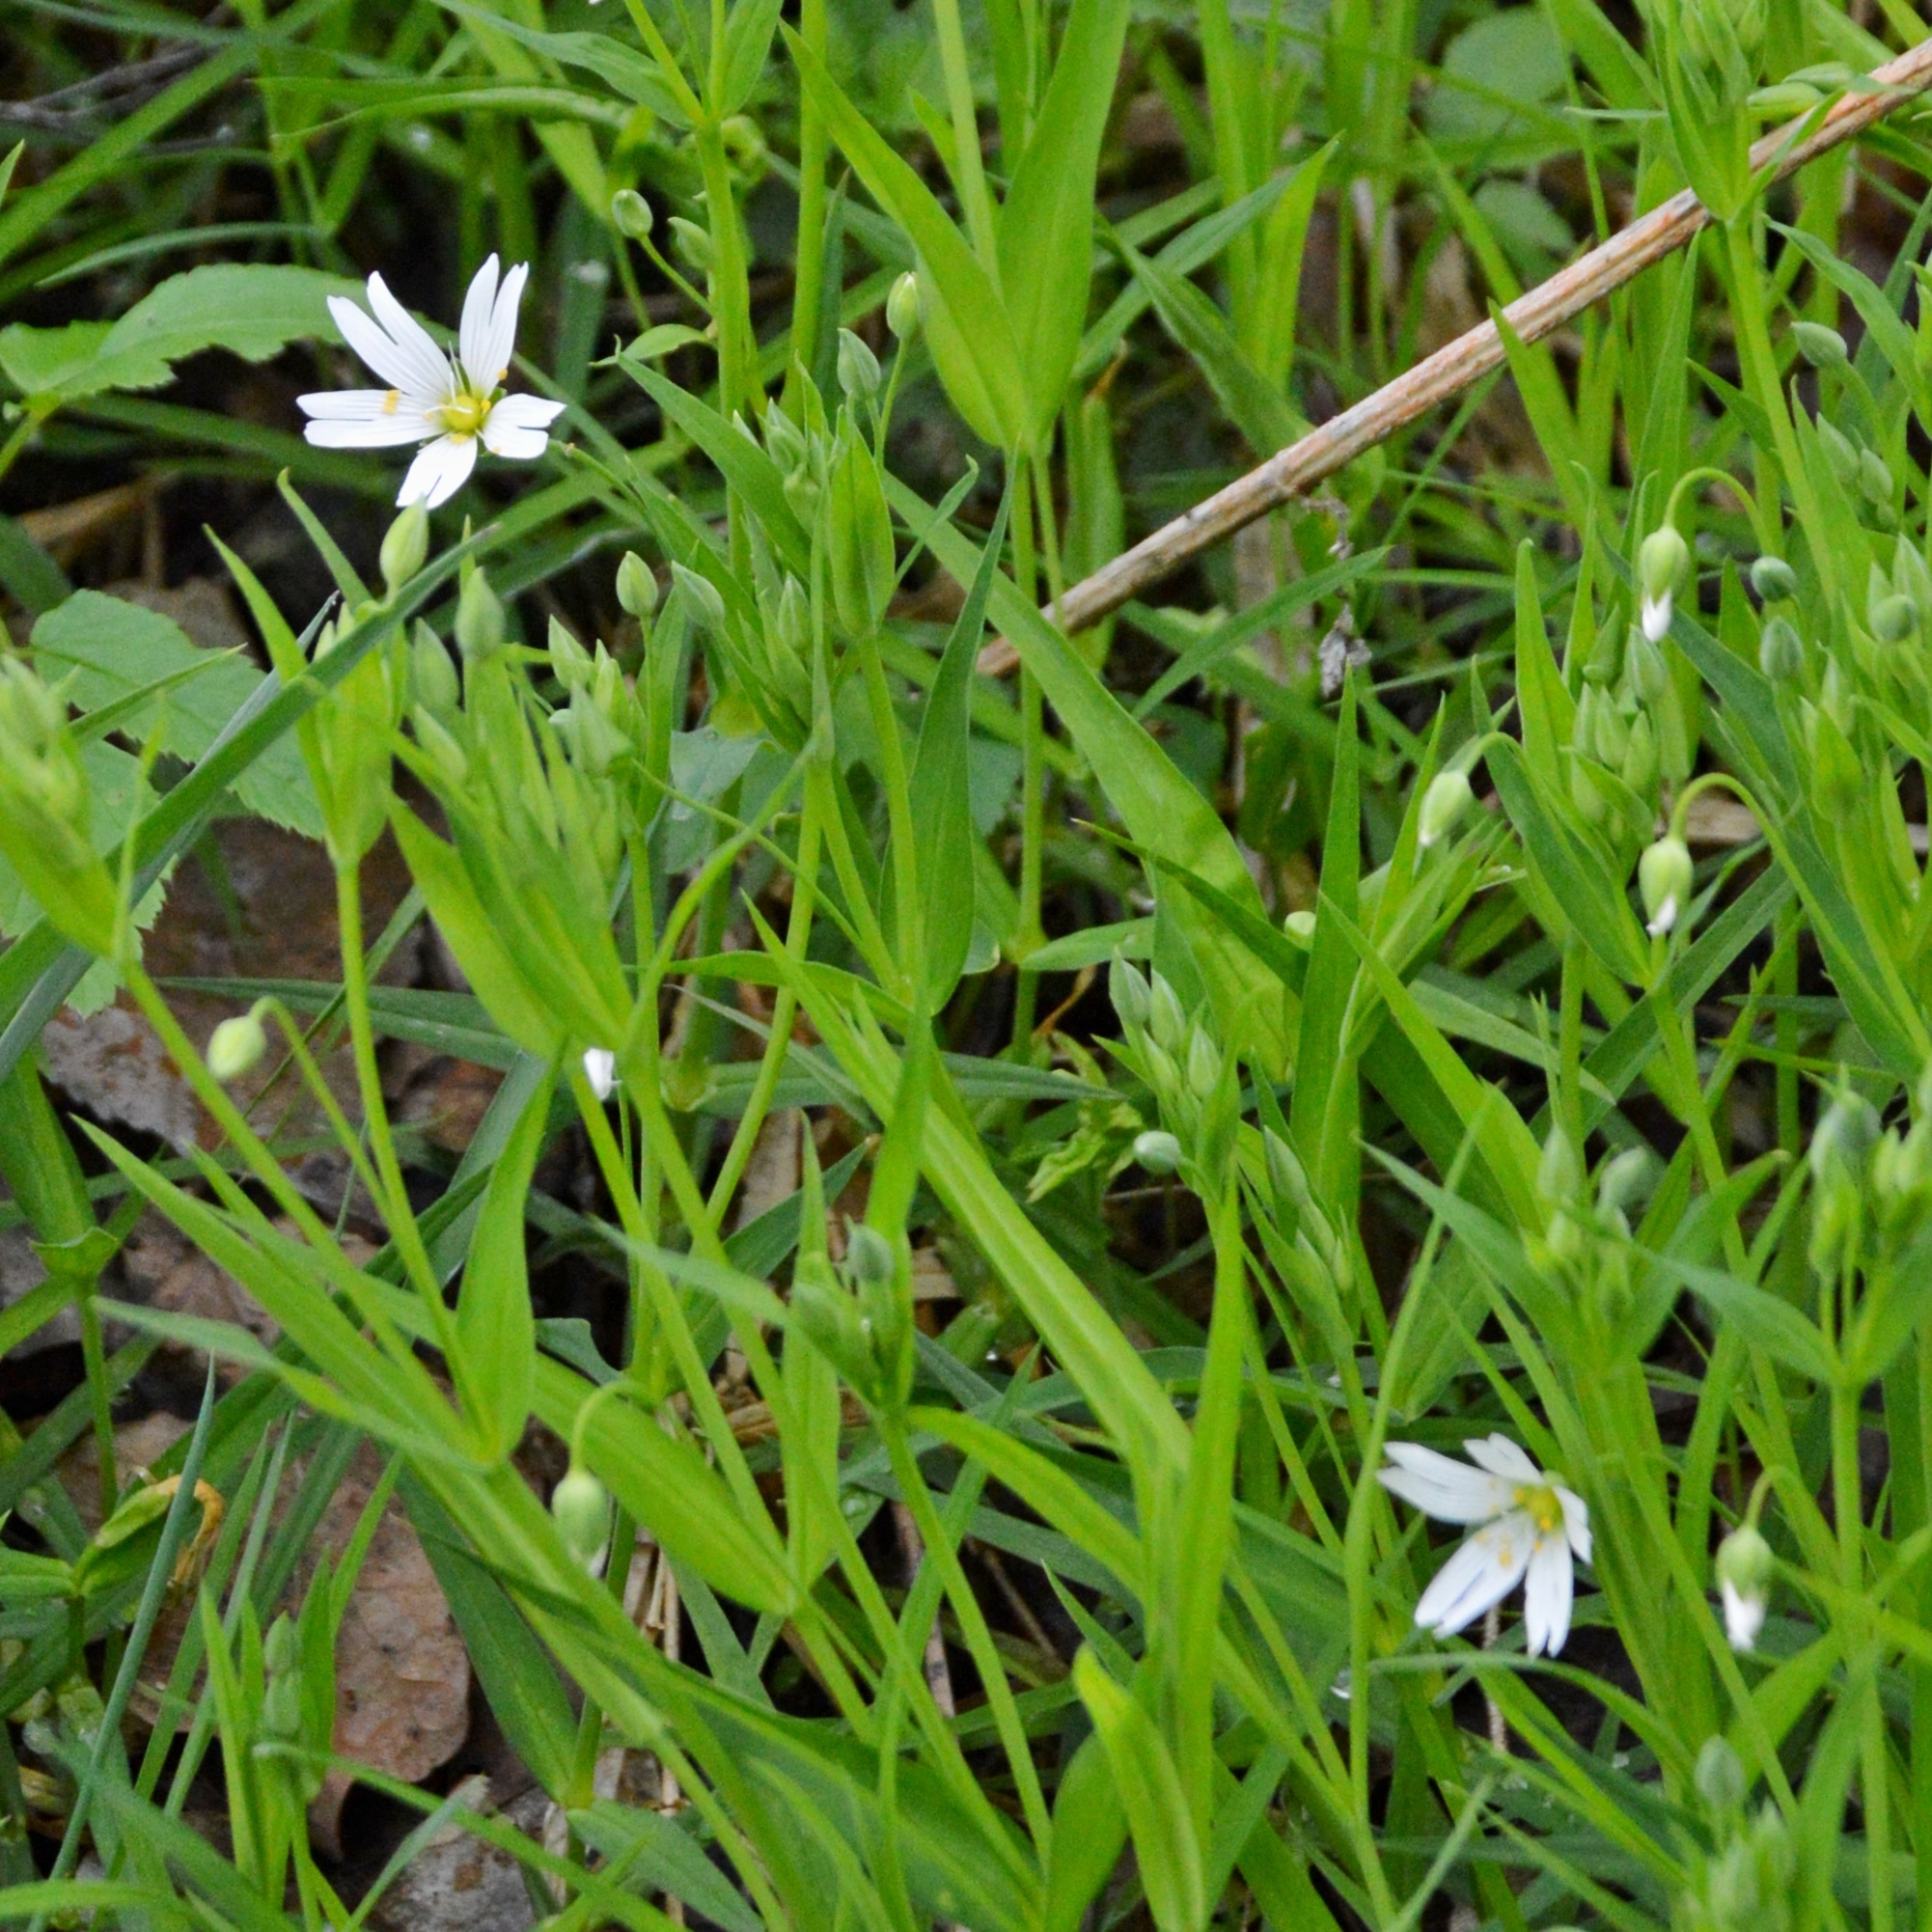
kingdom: Plantae
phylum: Tracheophyta
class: Magnoliopsida
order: Caryophyllales
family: Caryophyllaceae
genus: Rabelera
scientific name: Rabelera holostea
